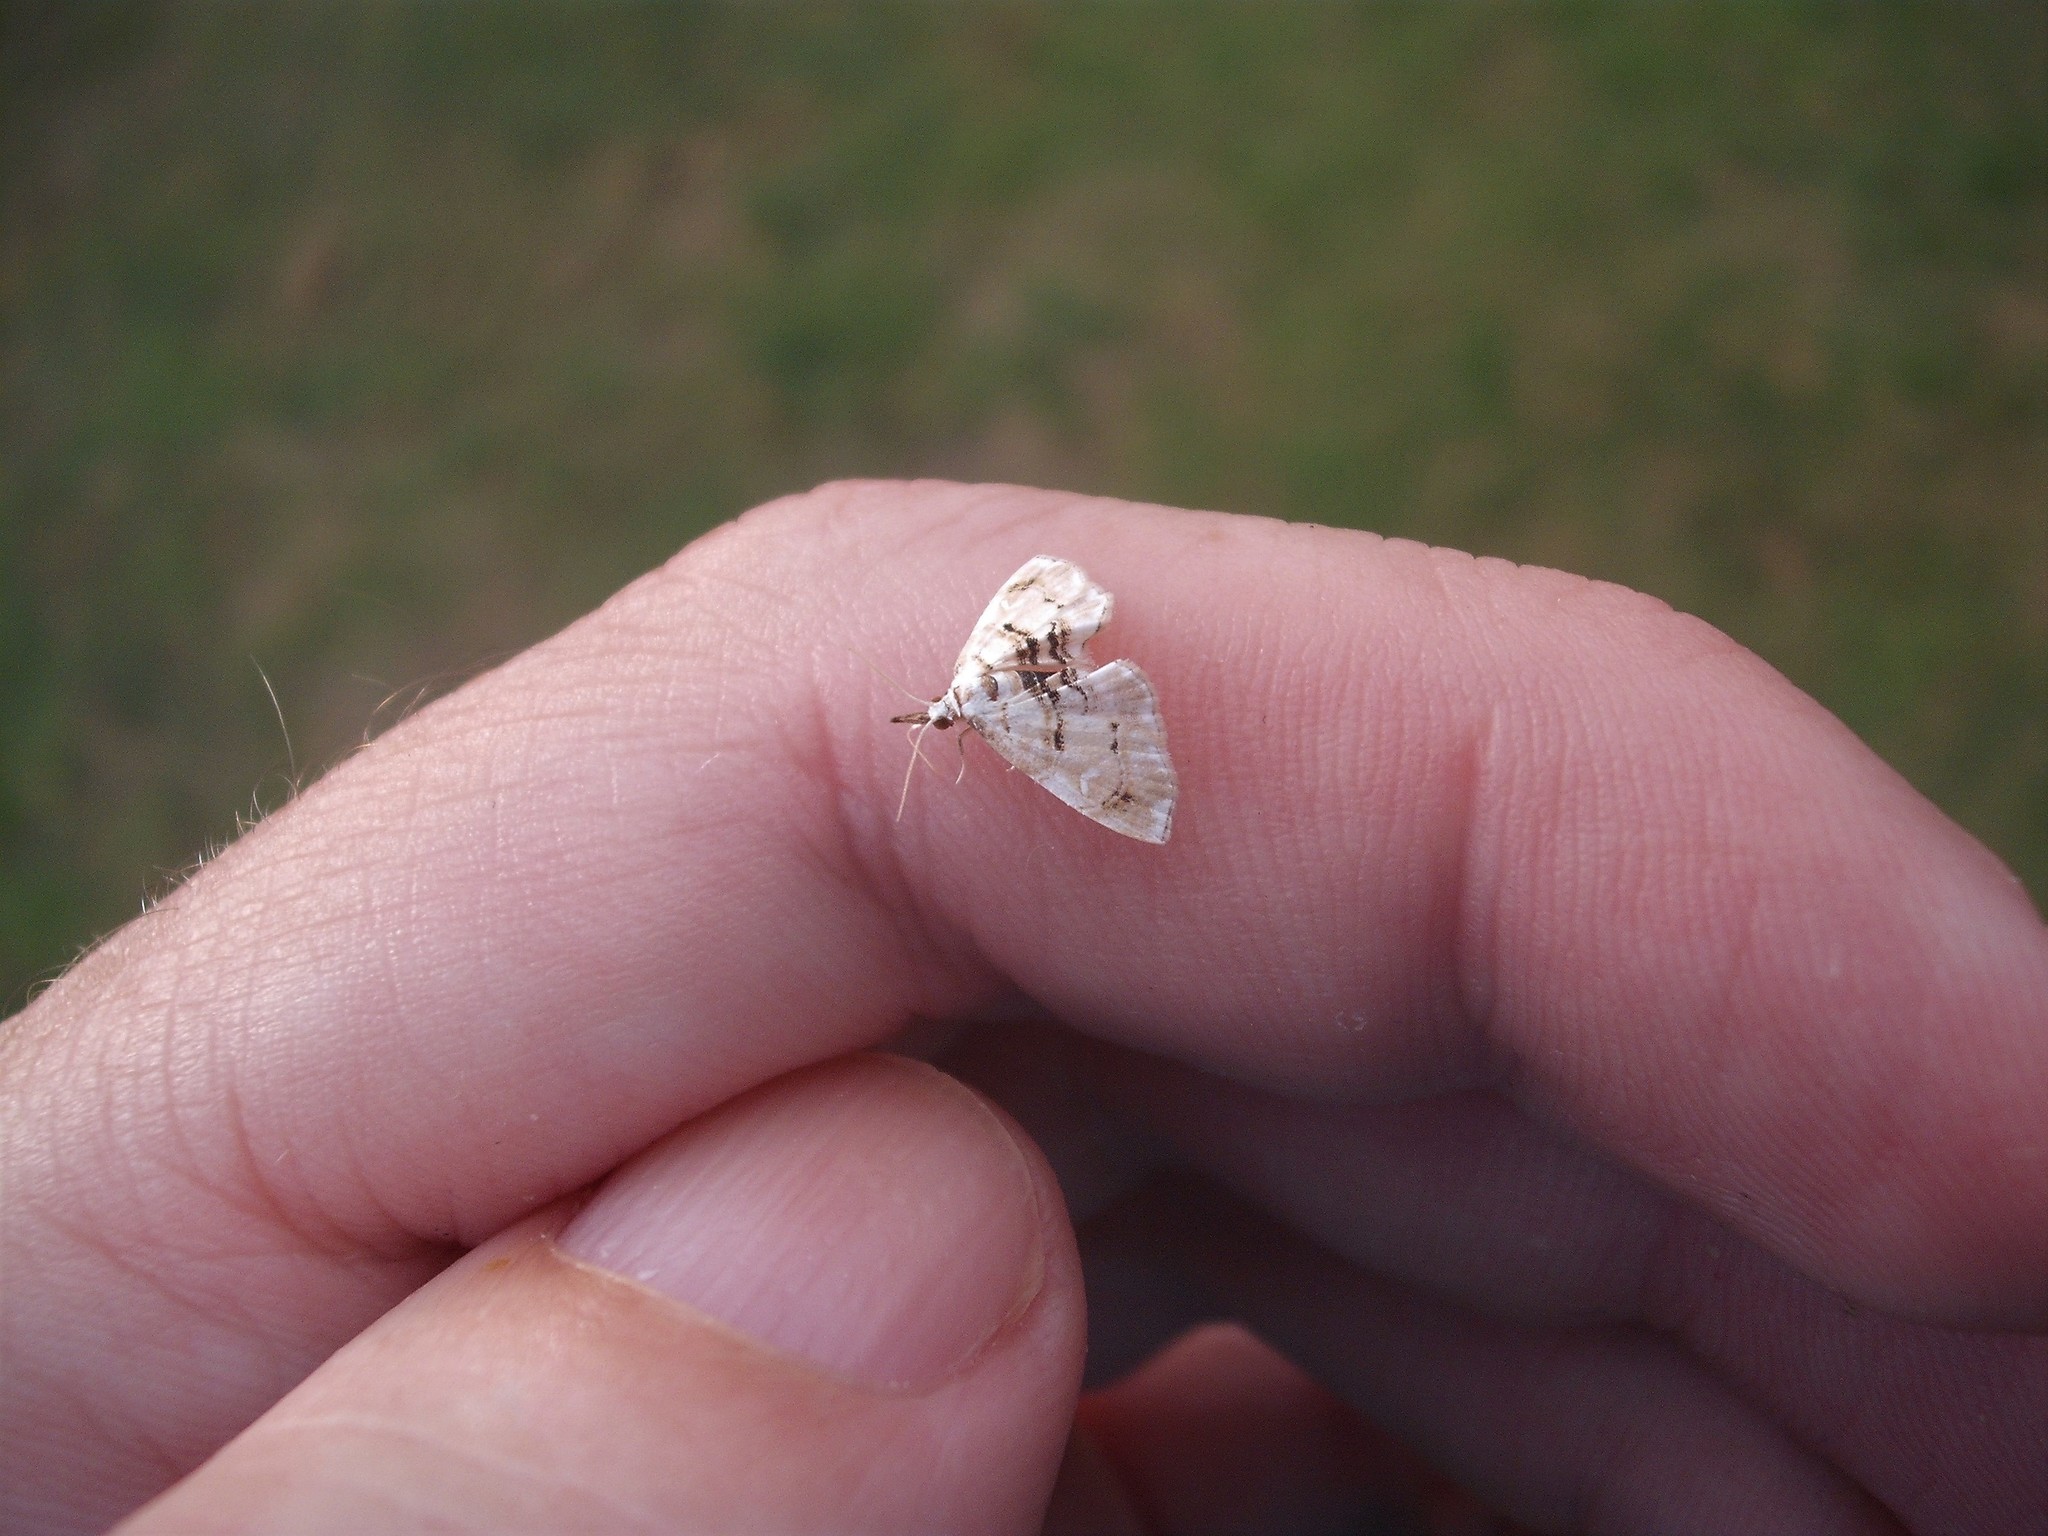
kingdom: Animalia
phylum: Arthropoda
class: Insecta
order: Lepidoptera
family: Crambidae
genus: Trichophysetis
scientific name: Trichophysetis
